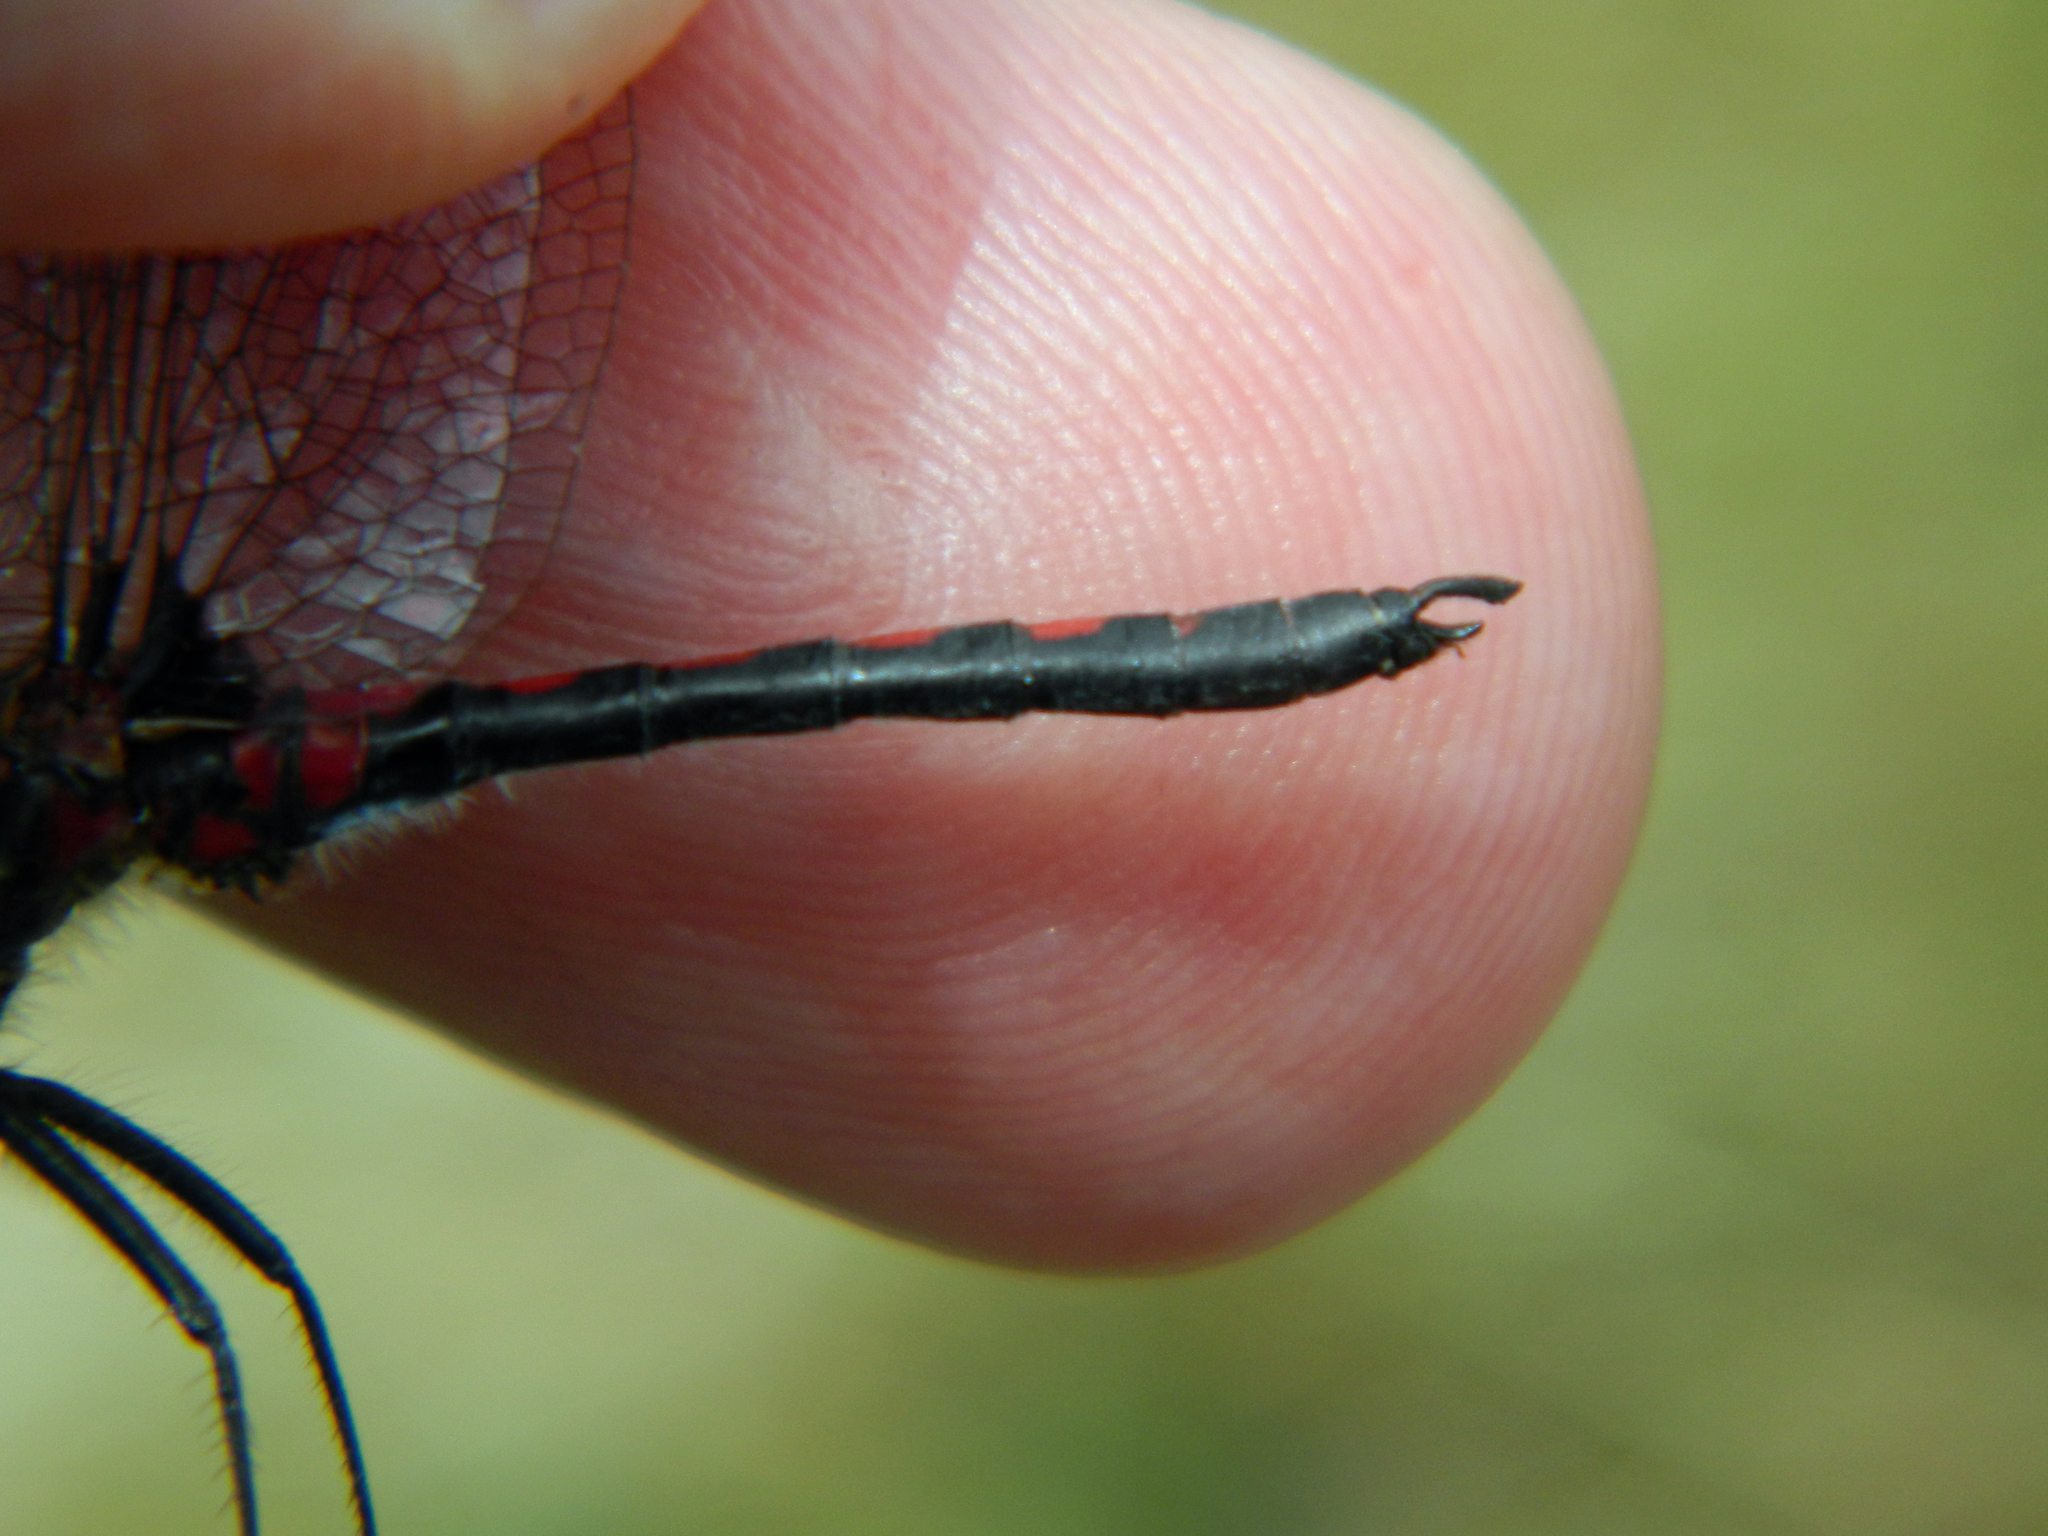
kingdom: Animalia
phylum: Arthropoda
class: Insecta
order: Odonata
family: Libellulidae
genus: Leucorrhinia
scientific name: Leucorrhinia hudsonica
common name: Hudsonian whiteface
